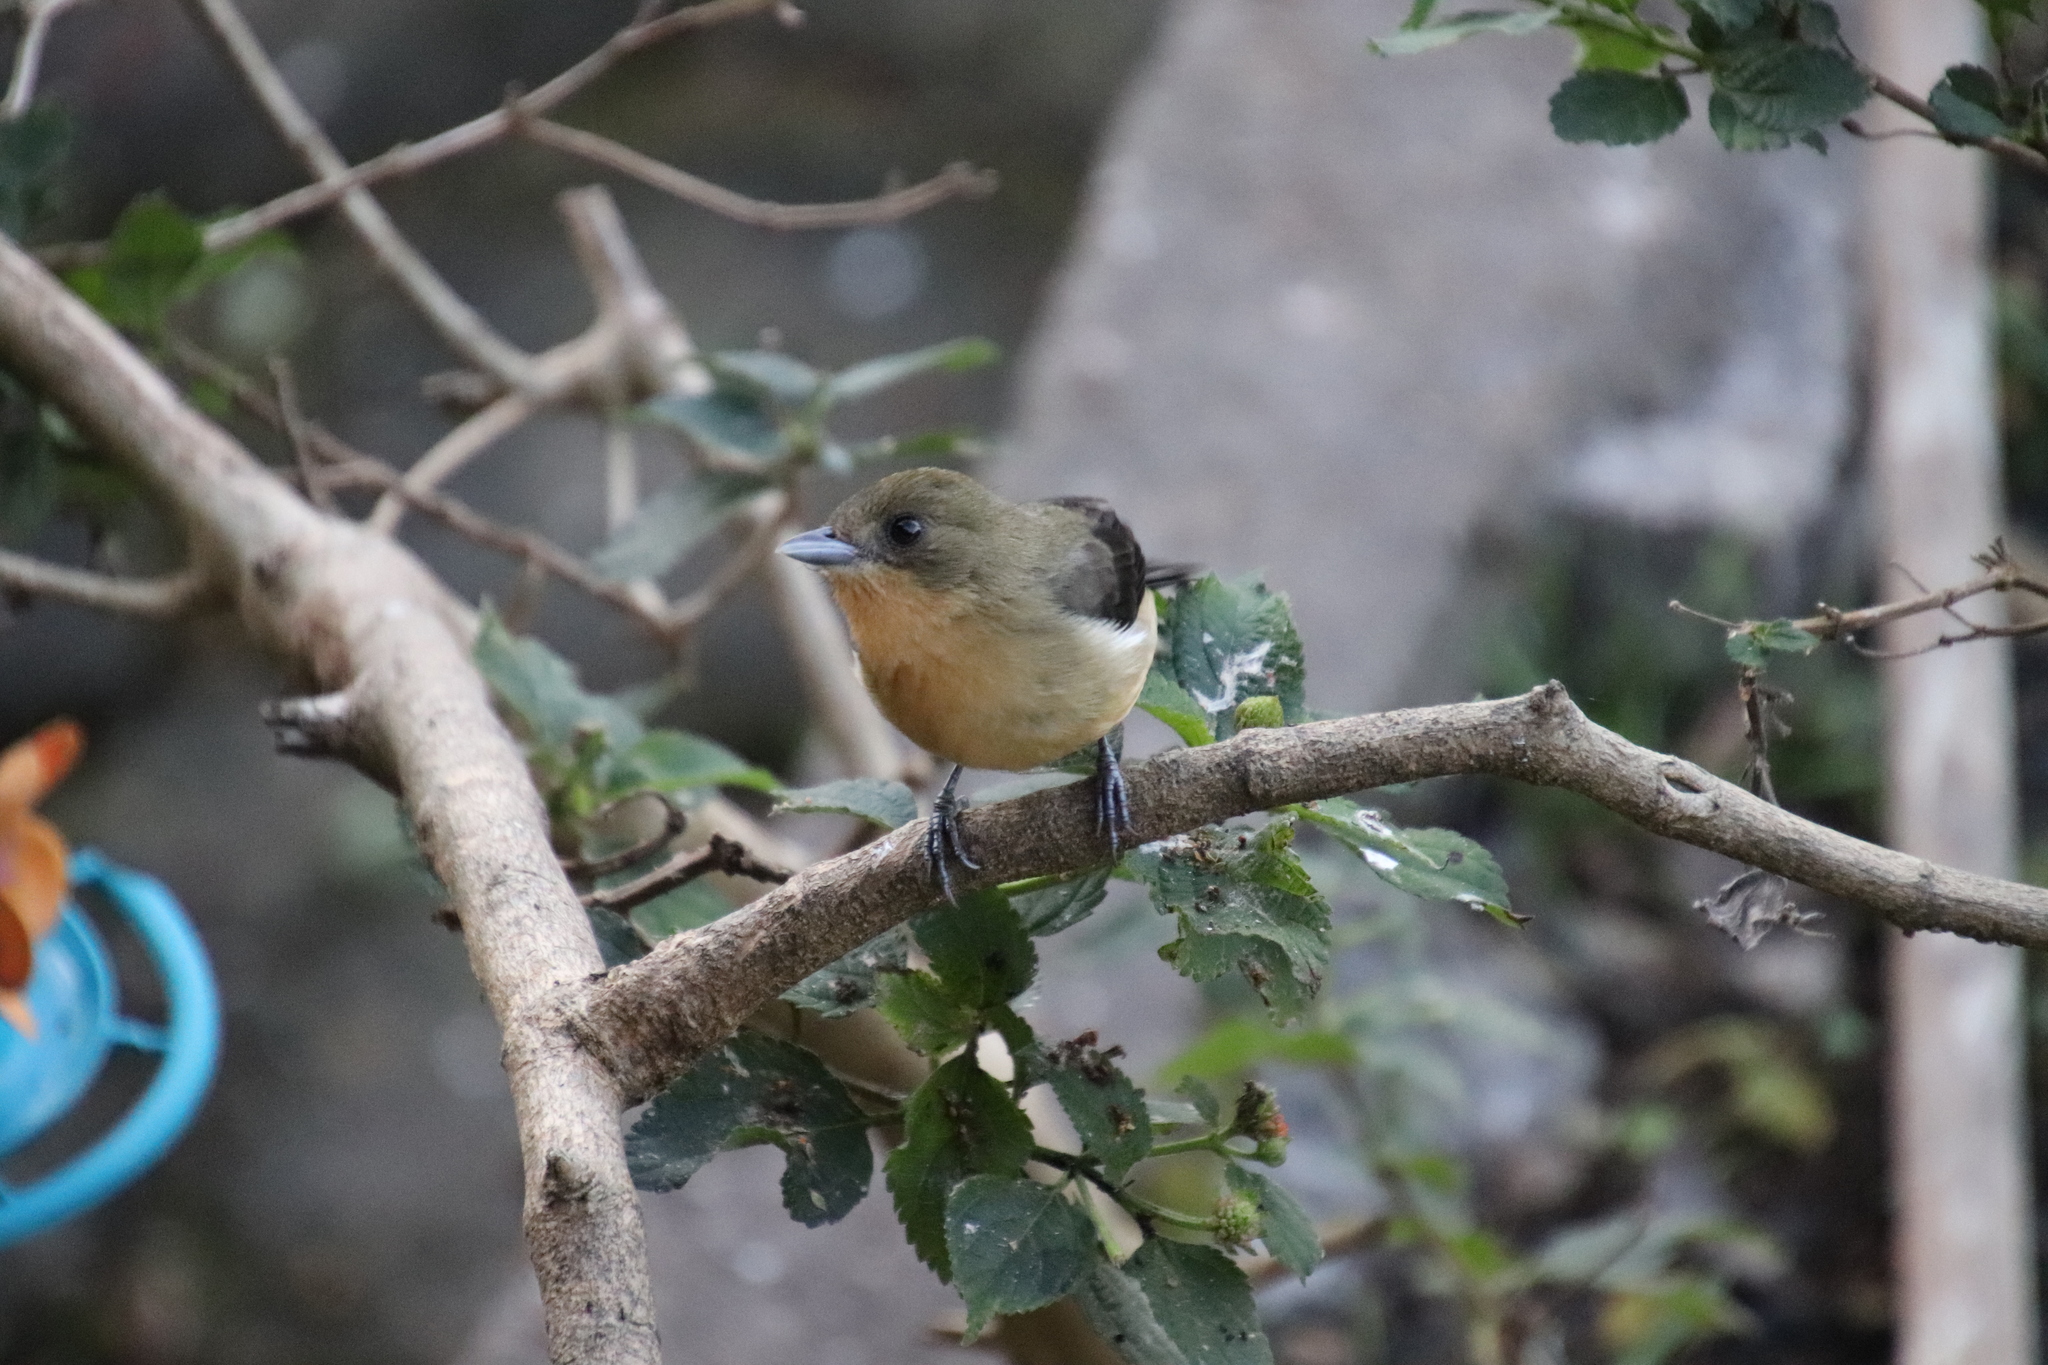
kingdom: Animalia
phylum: Chordata
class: Aves
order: Passeriformes
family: Thraupidae
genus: Trichothraupis
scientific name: Trichothraupis melanops
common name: Black-goggled tanager
